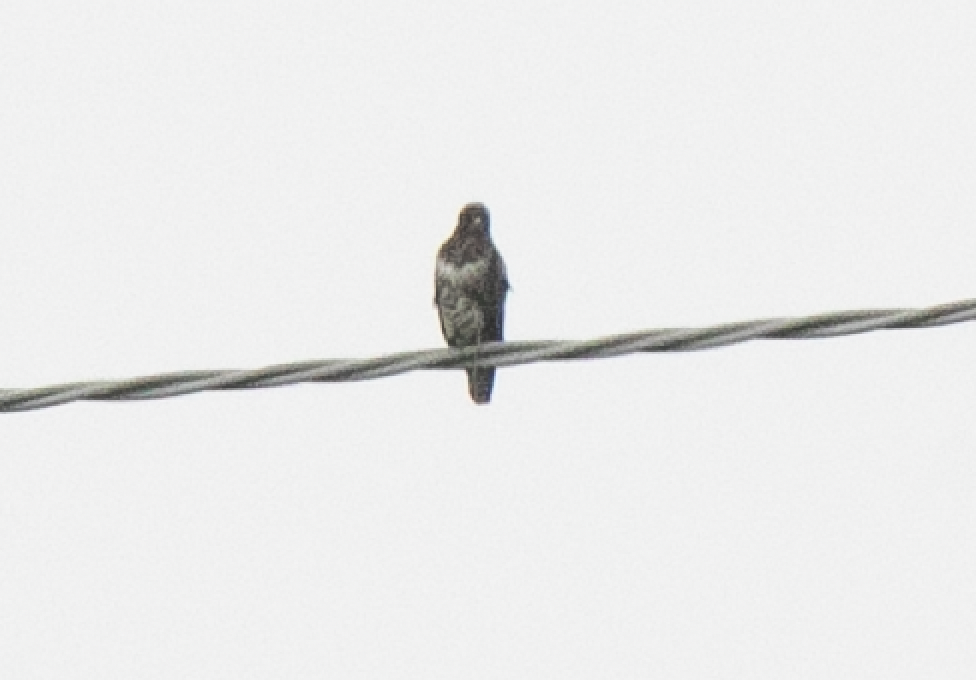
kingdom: Animalia
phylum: Chordata
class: Aves
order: Accipitriformes
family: Accipitridae
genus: Buteo
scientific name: Buteo buteo
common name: Common buzzard
